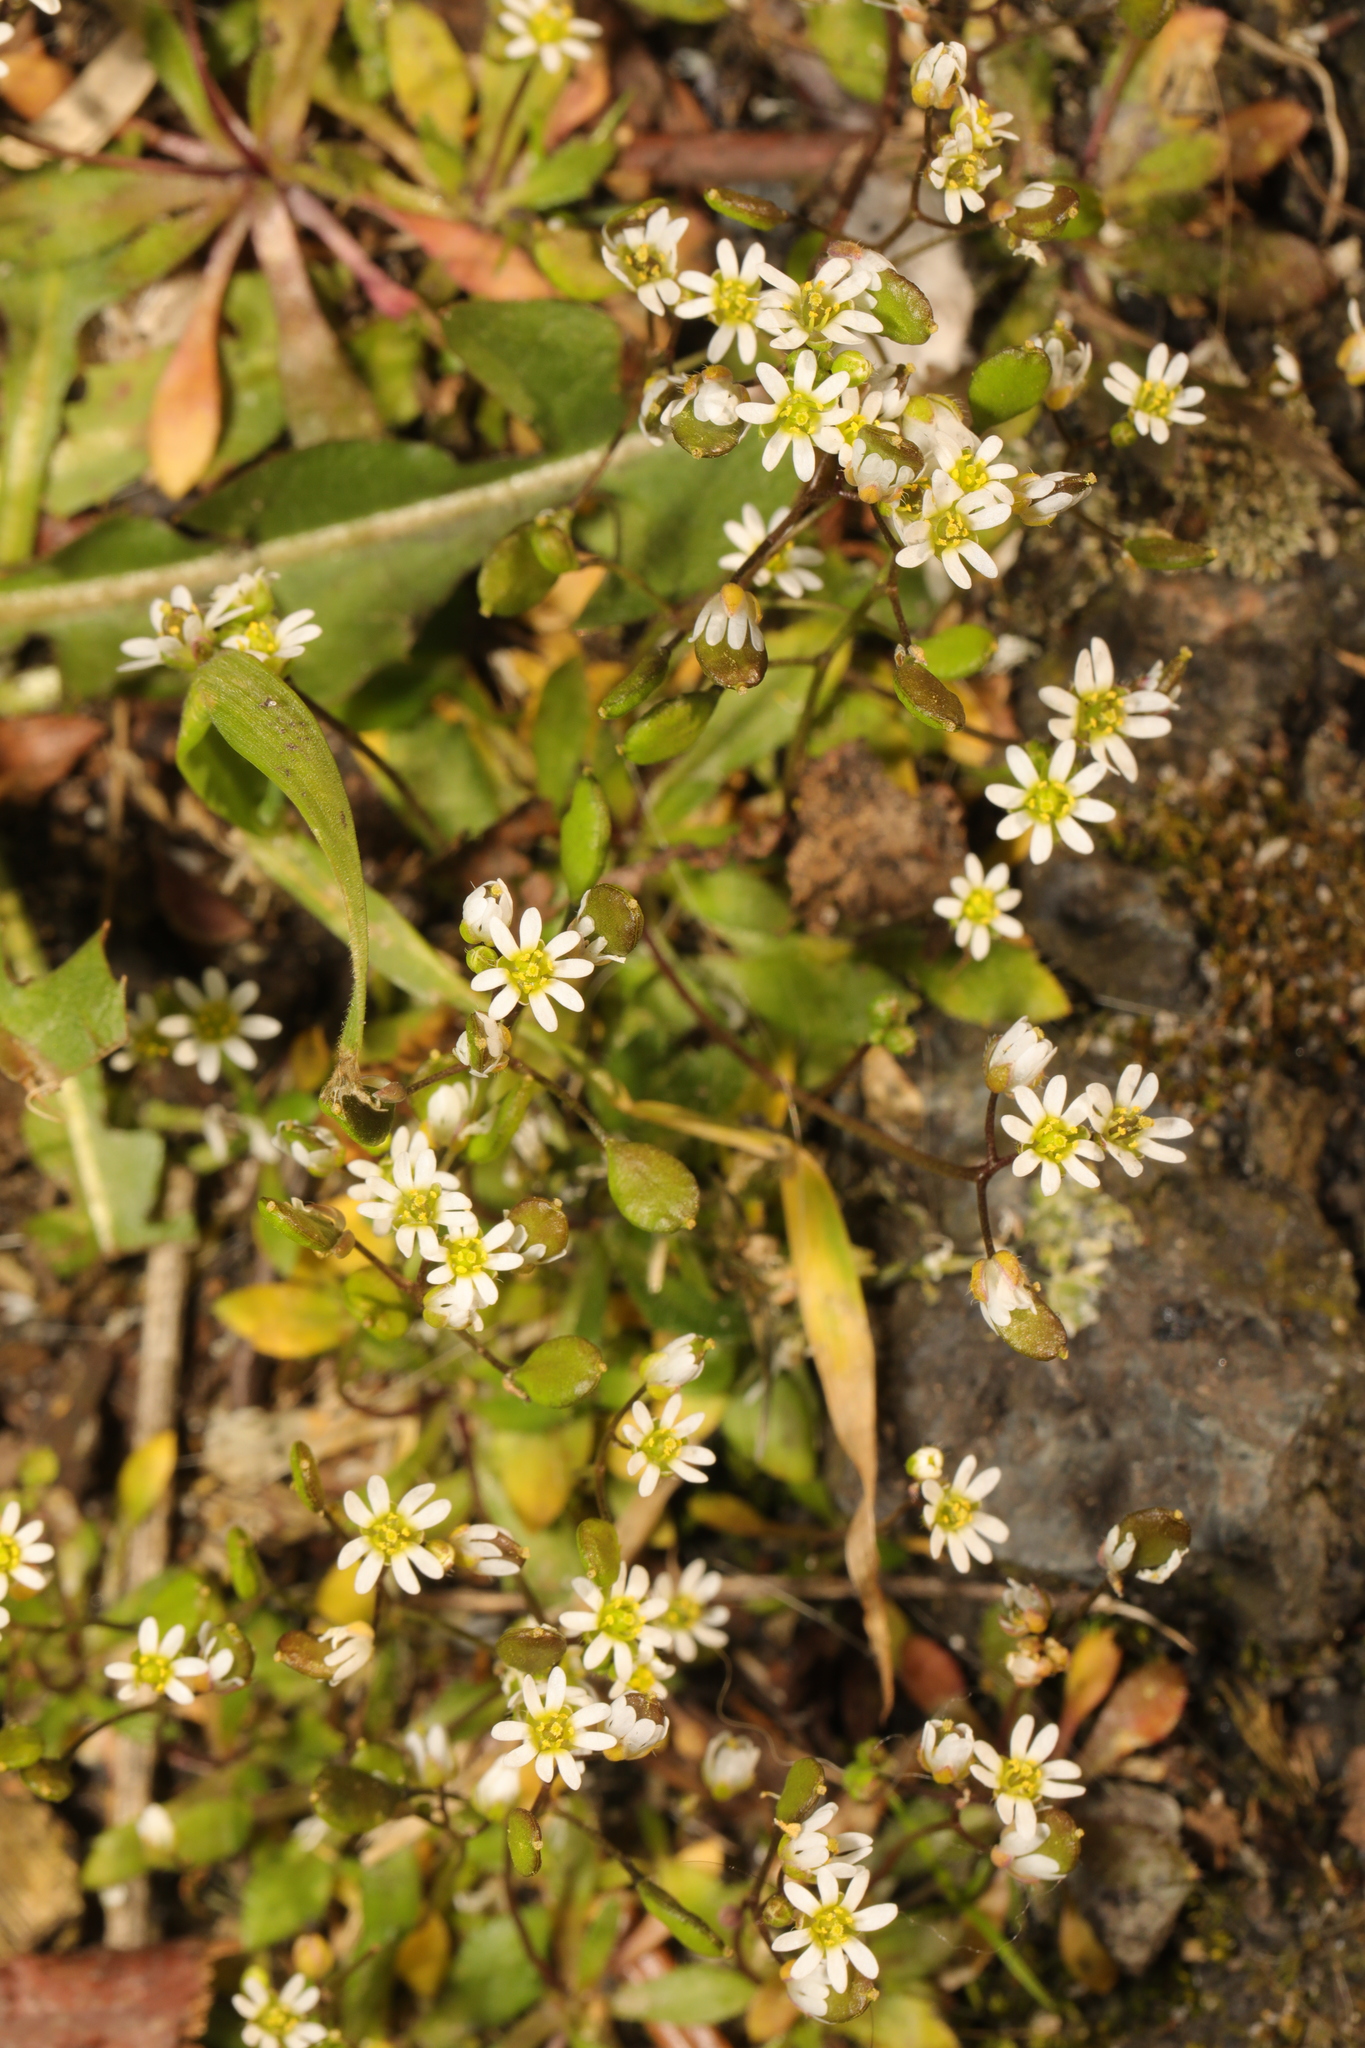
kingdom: Plantae
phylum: Tracheophyta
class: Magnoliopsida
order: Brassicales
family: Brassicaceae
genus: Draba
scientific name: Draba verna
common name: Spring draba
